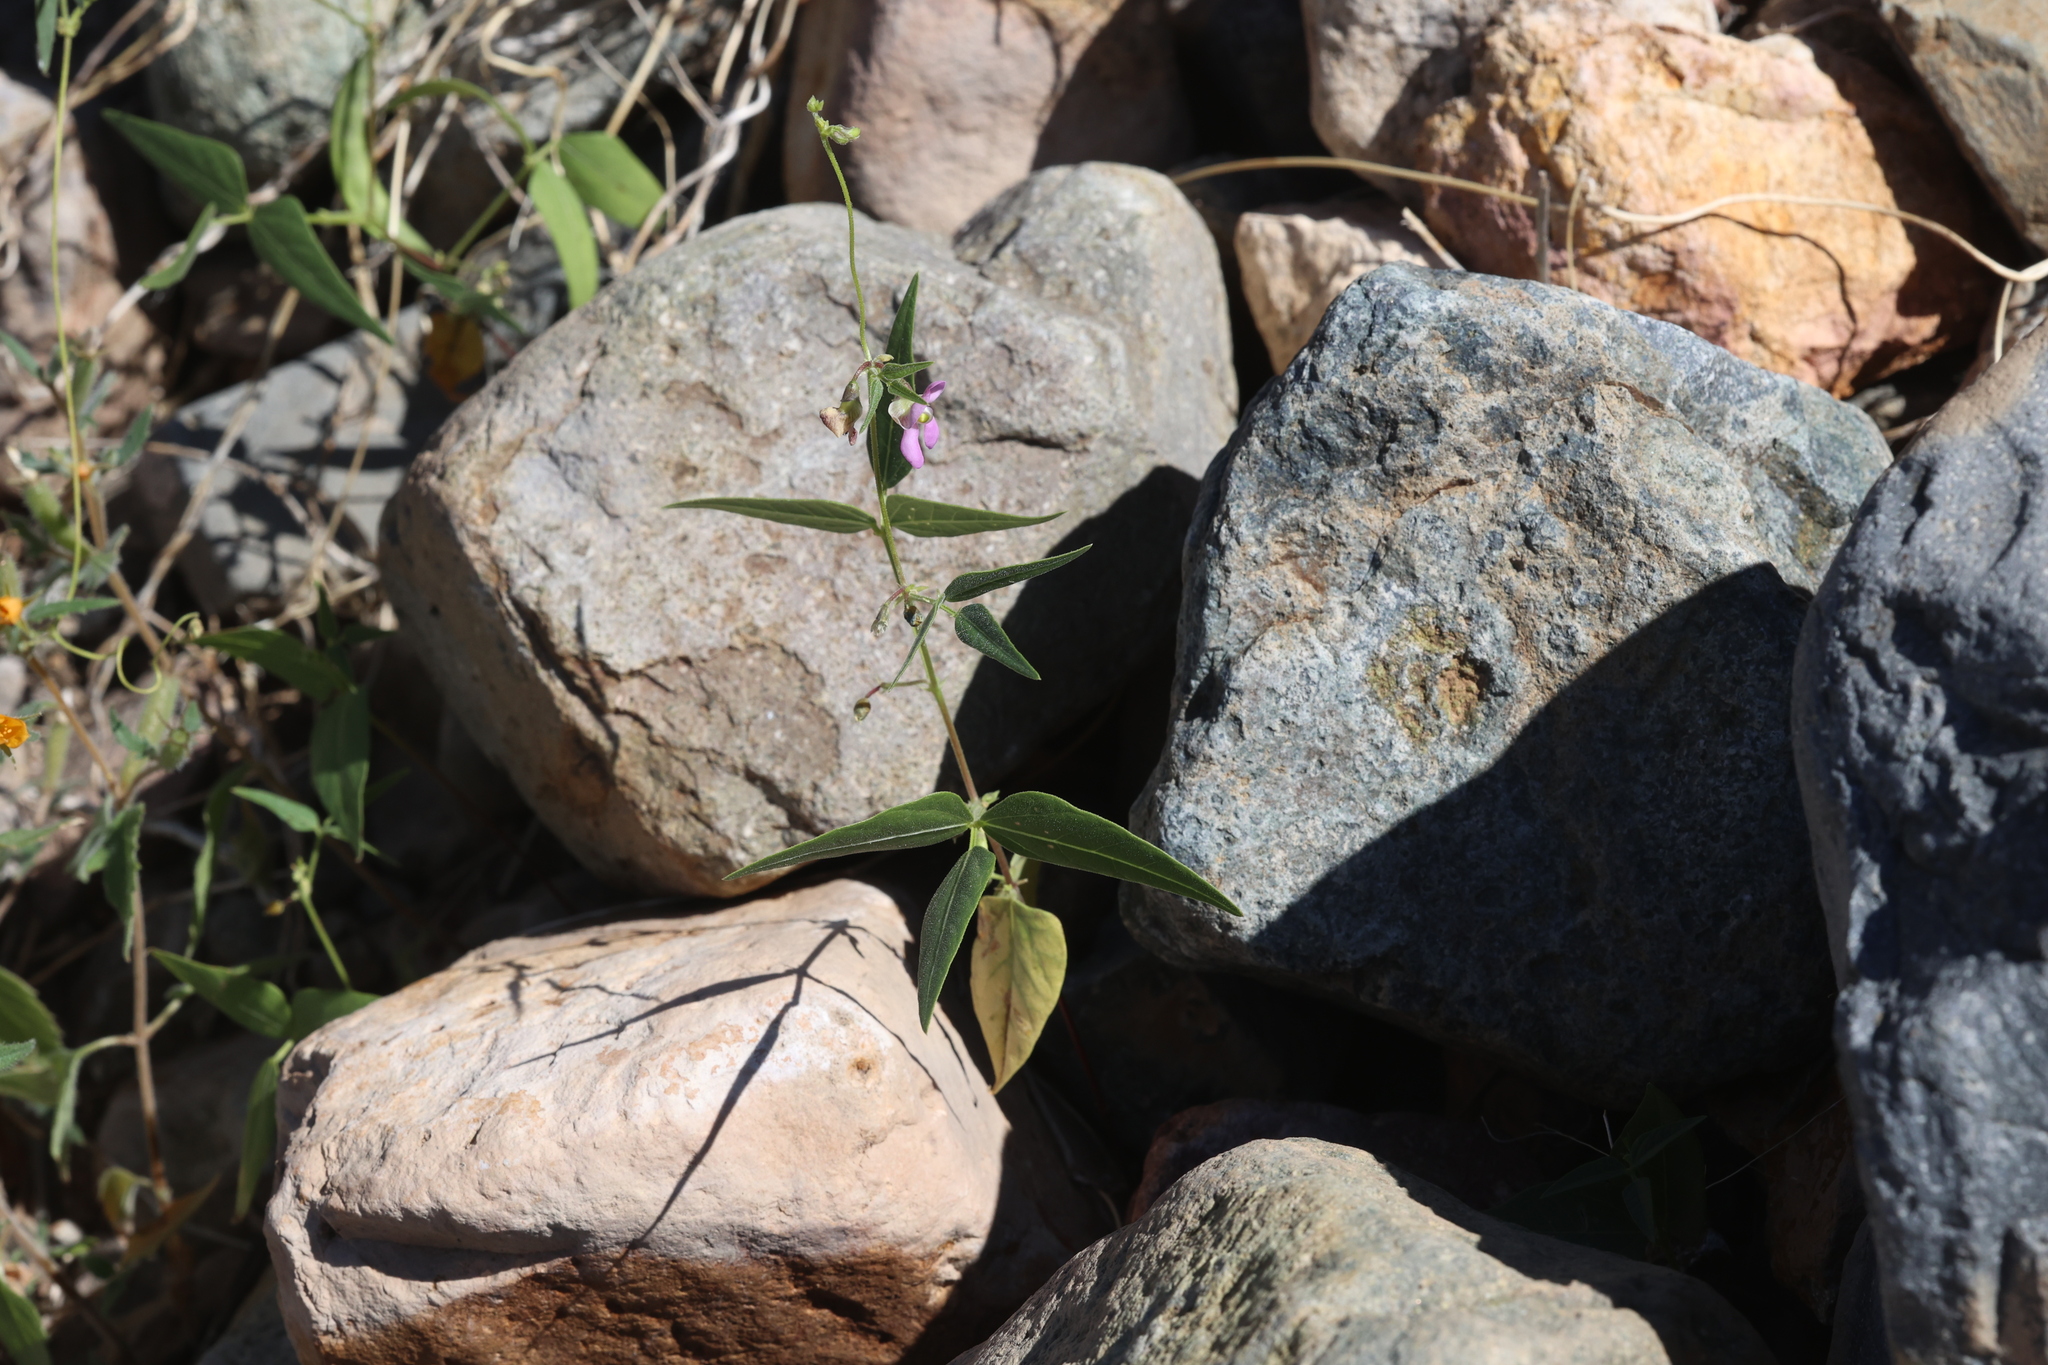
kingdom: Plantae
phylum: Tracheophyta
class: Magnoliopsida
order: Fabales
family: Fabaceae
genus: Phaseolus
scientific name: Phaseolus acutifolius
